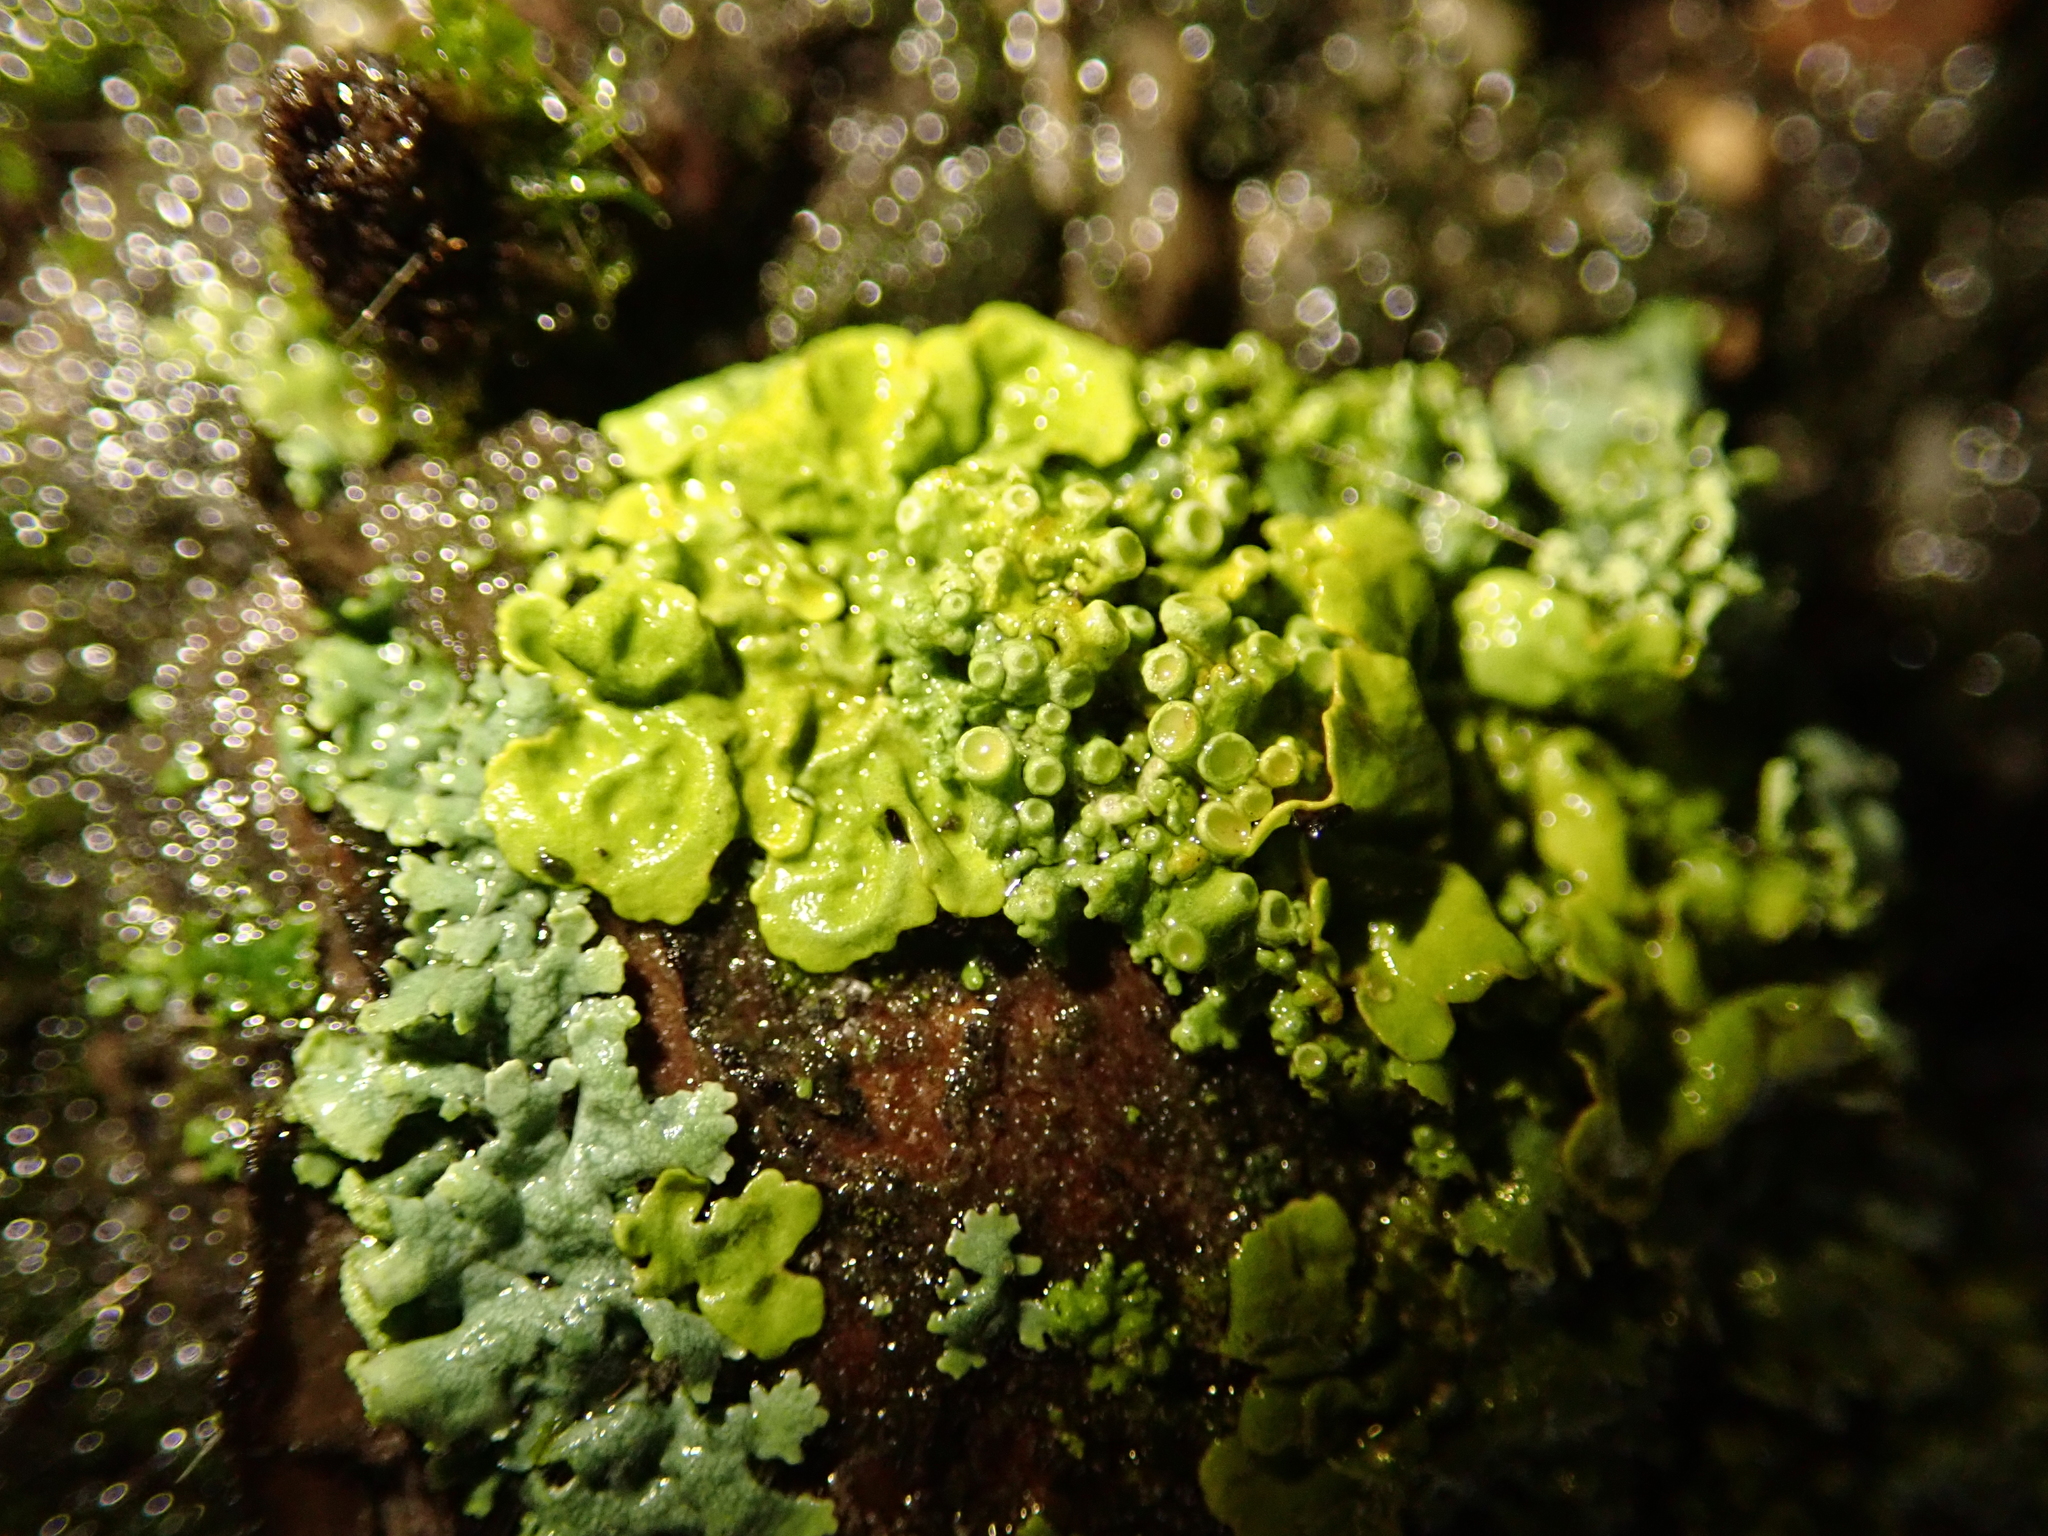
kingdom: Fungi
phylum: Ascomycota
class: Lecanoromycetes
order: Teloschistales
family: Teloschistaceae
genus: Xanthoria
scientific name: Xanthoria parietina
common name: Common orange lichen
